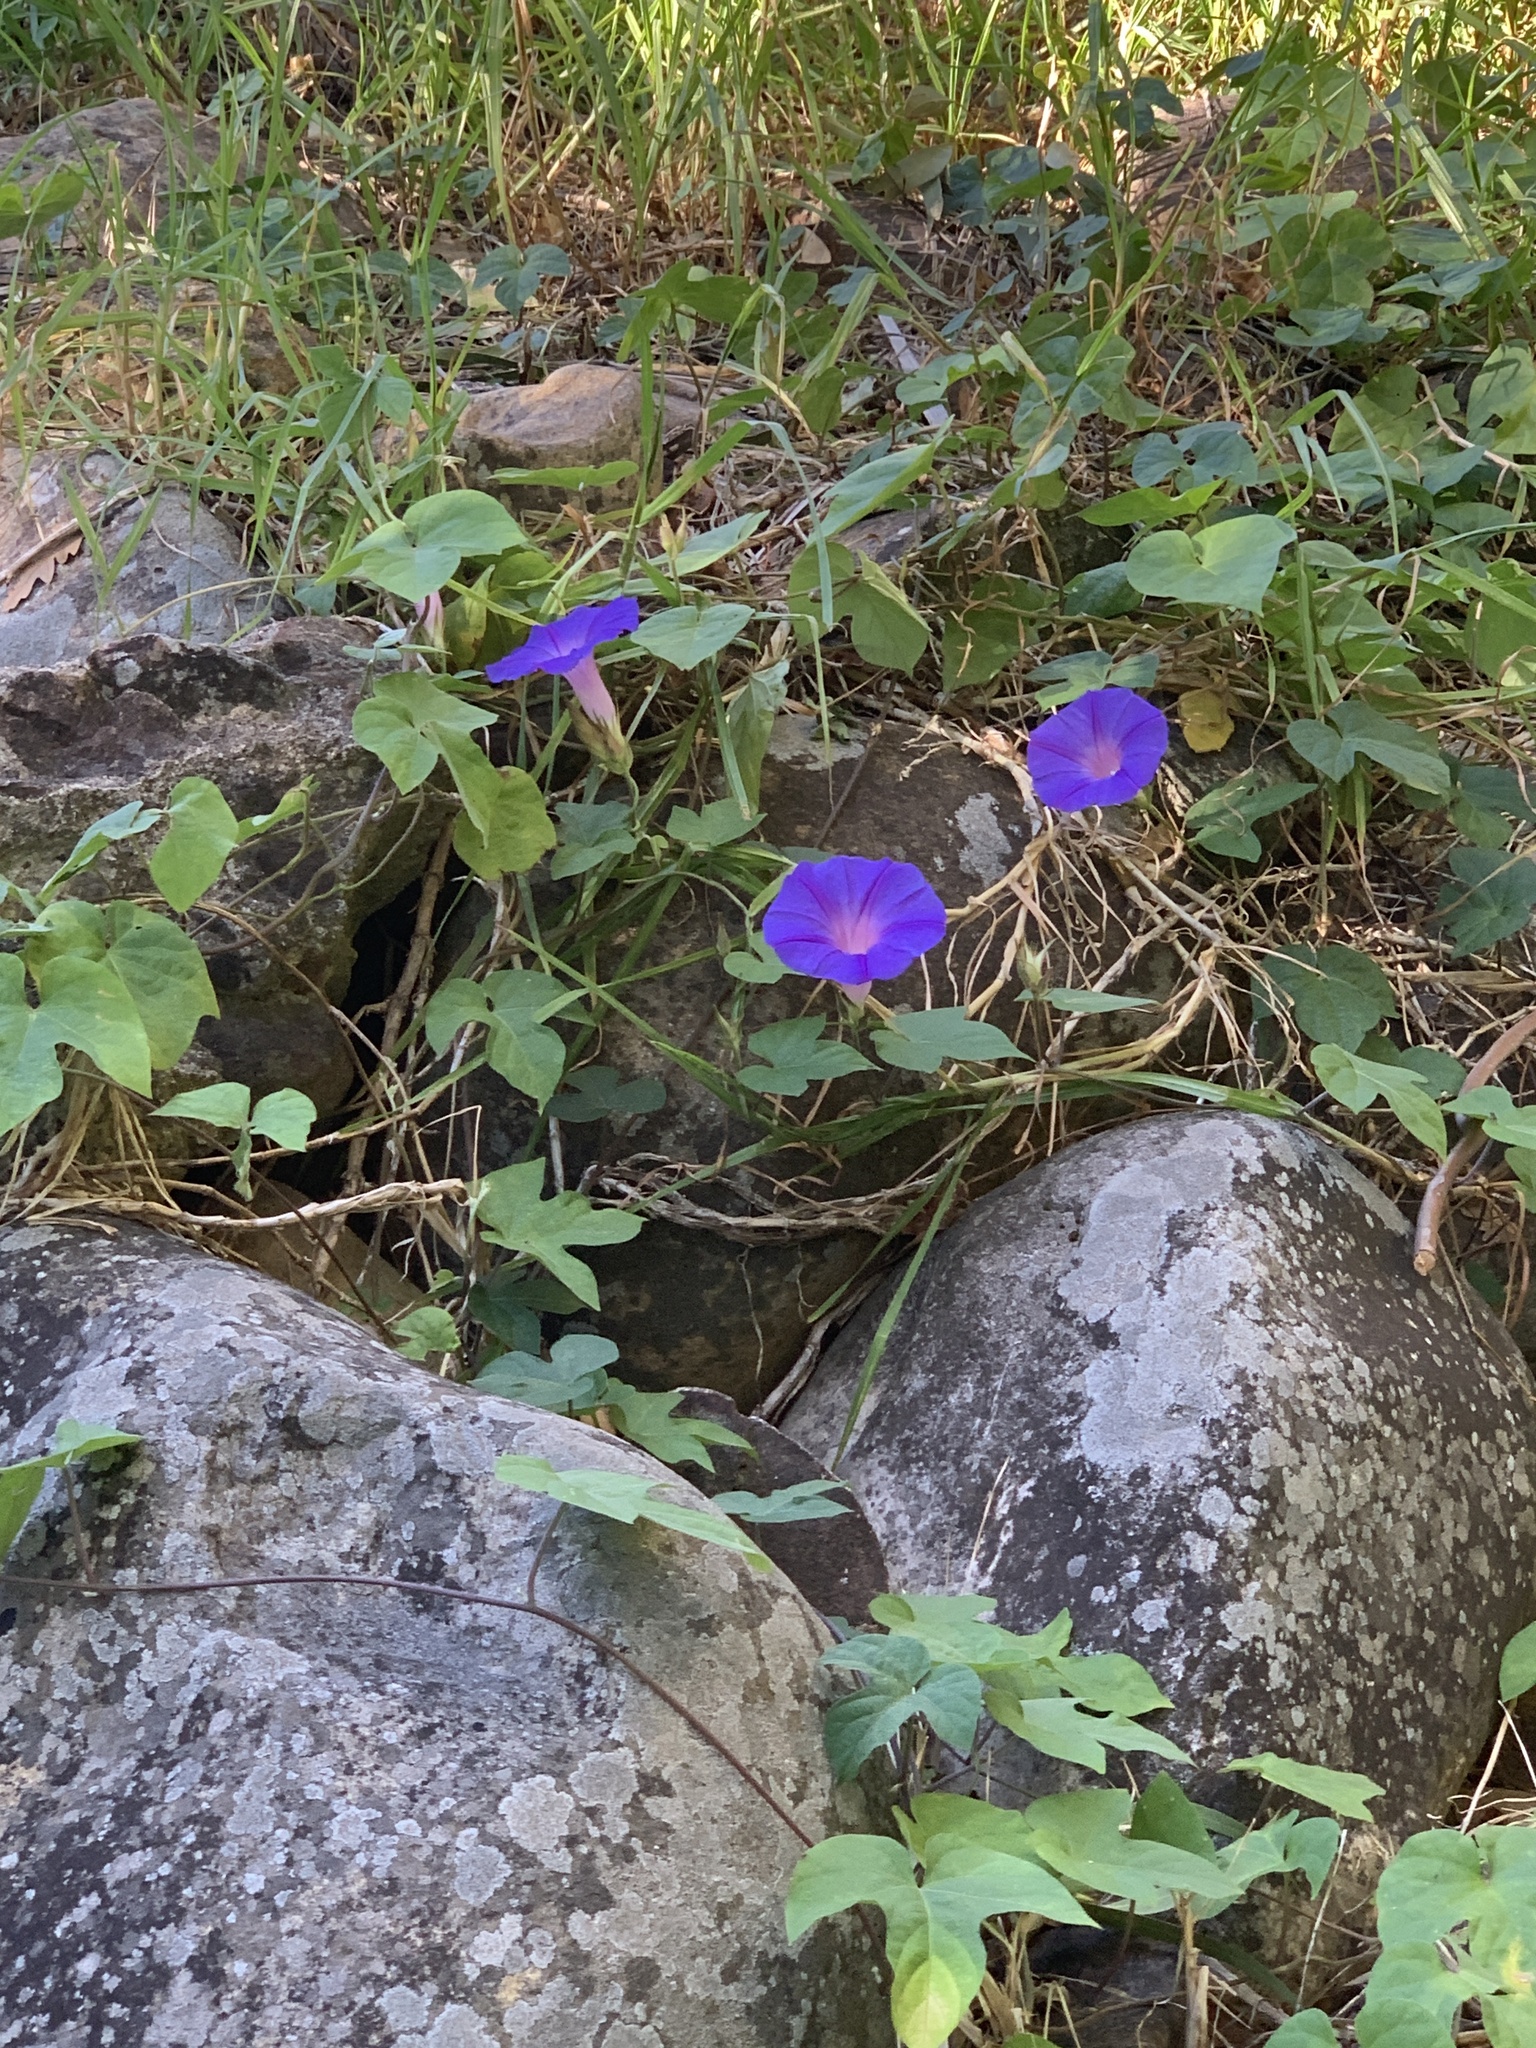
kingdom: Plantae
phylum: Tracheophyta
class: Magnoliopsida
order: Solanales
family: Convolvulaceae
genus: Ipomoea
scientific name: Ipomoea indica
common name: Blue dawnflower
